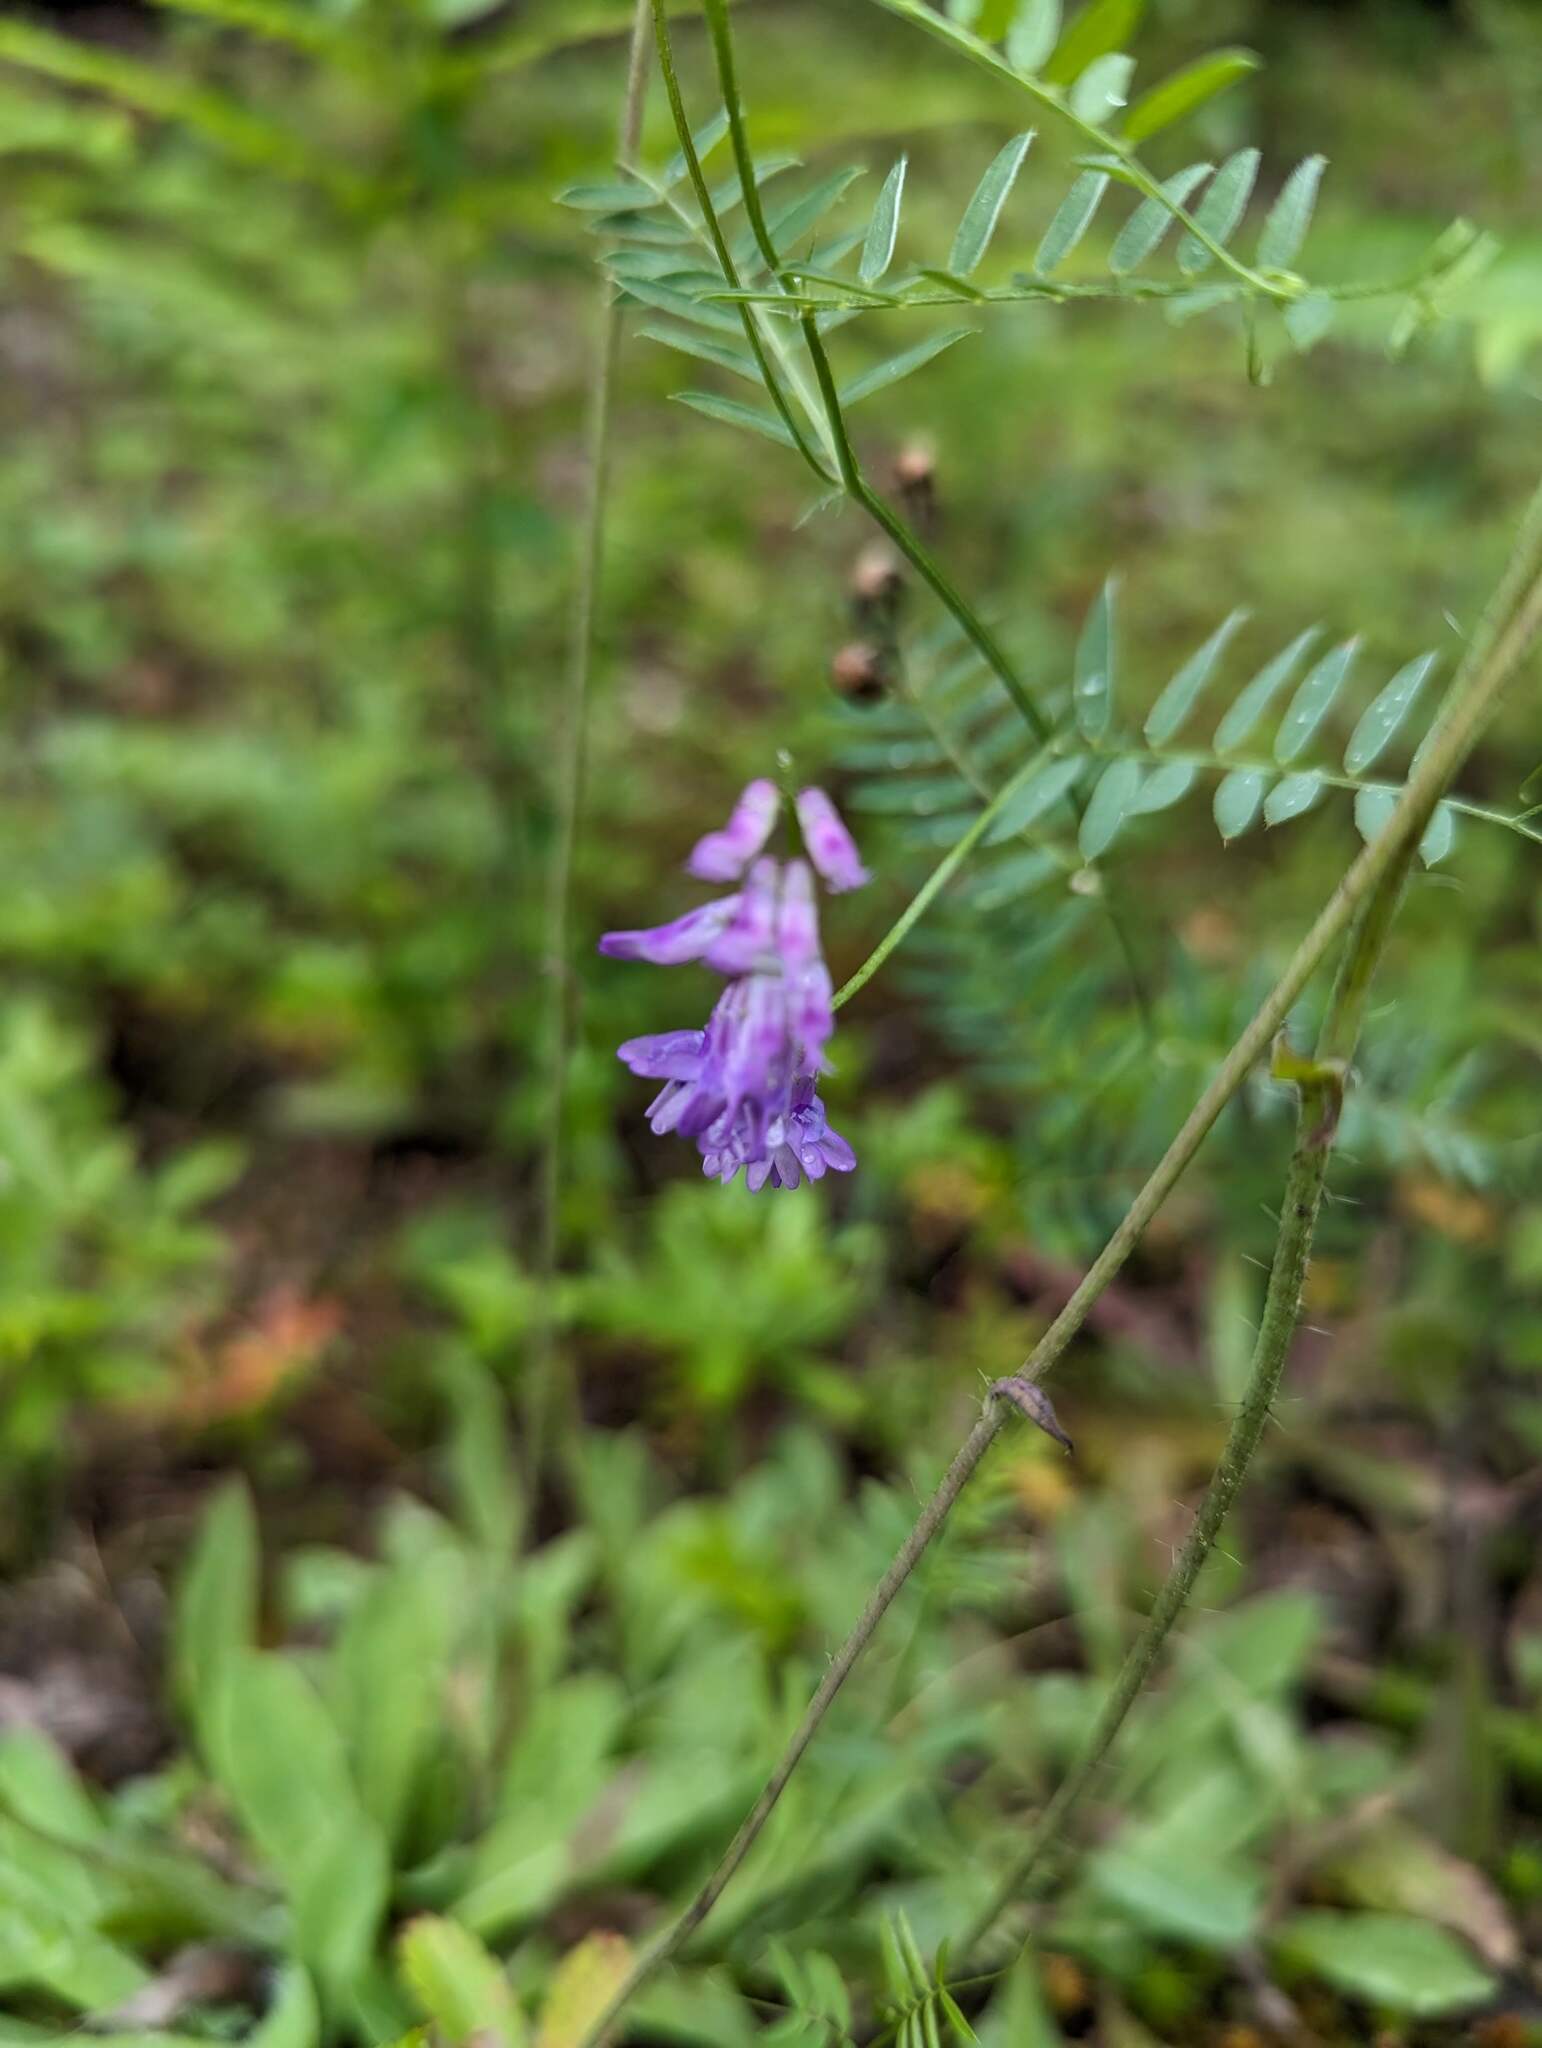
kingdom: Plantae
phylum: Tracheophyta
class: Magnoliopsida
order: Fabales
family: Fabaceae
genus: Vicia
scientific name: Vicia cracca
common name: Bird vetch
